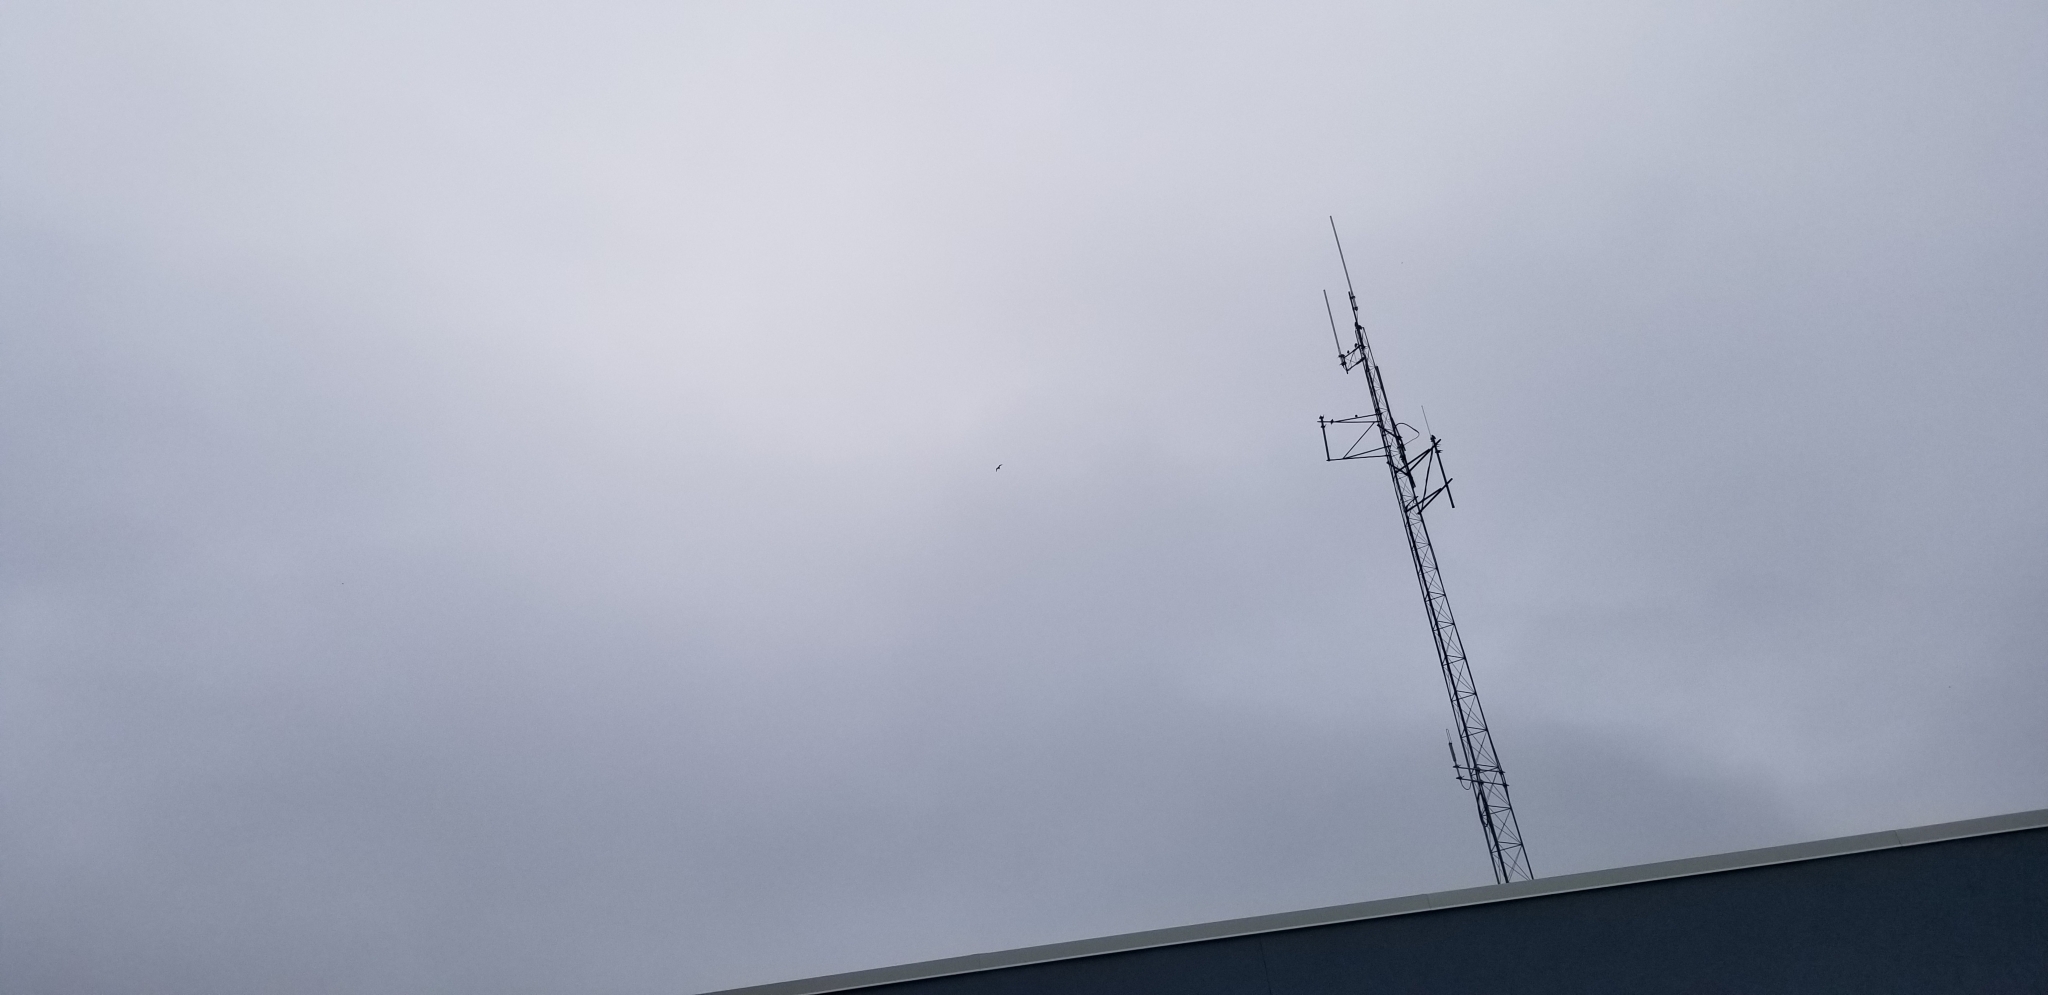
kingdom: Animalia
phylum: Chordata
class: Aves
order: Caprimulgiformes
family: Caprimulgidae
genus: Chordeiles
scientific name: Chordeiles minor
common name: Common nighthawk
